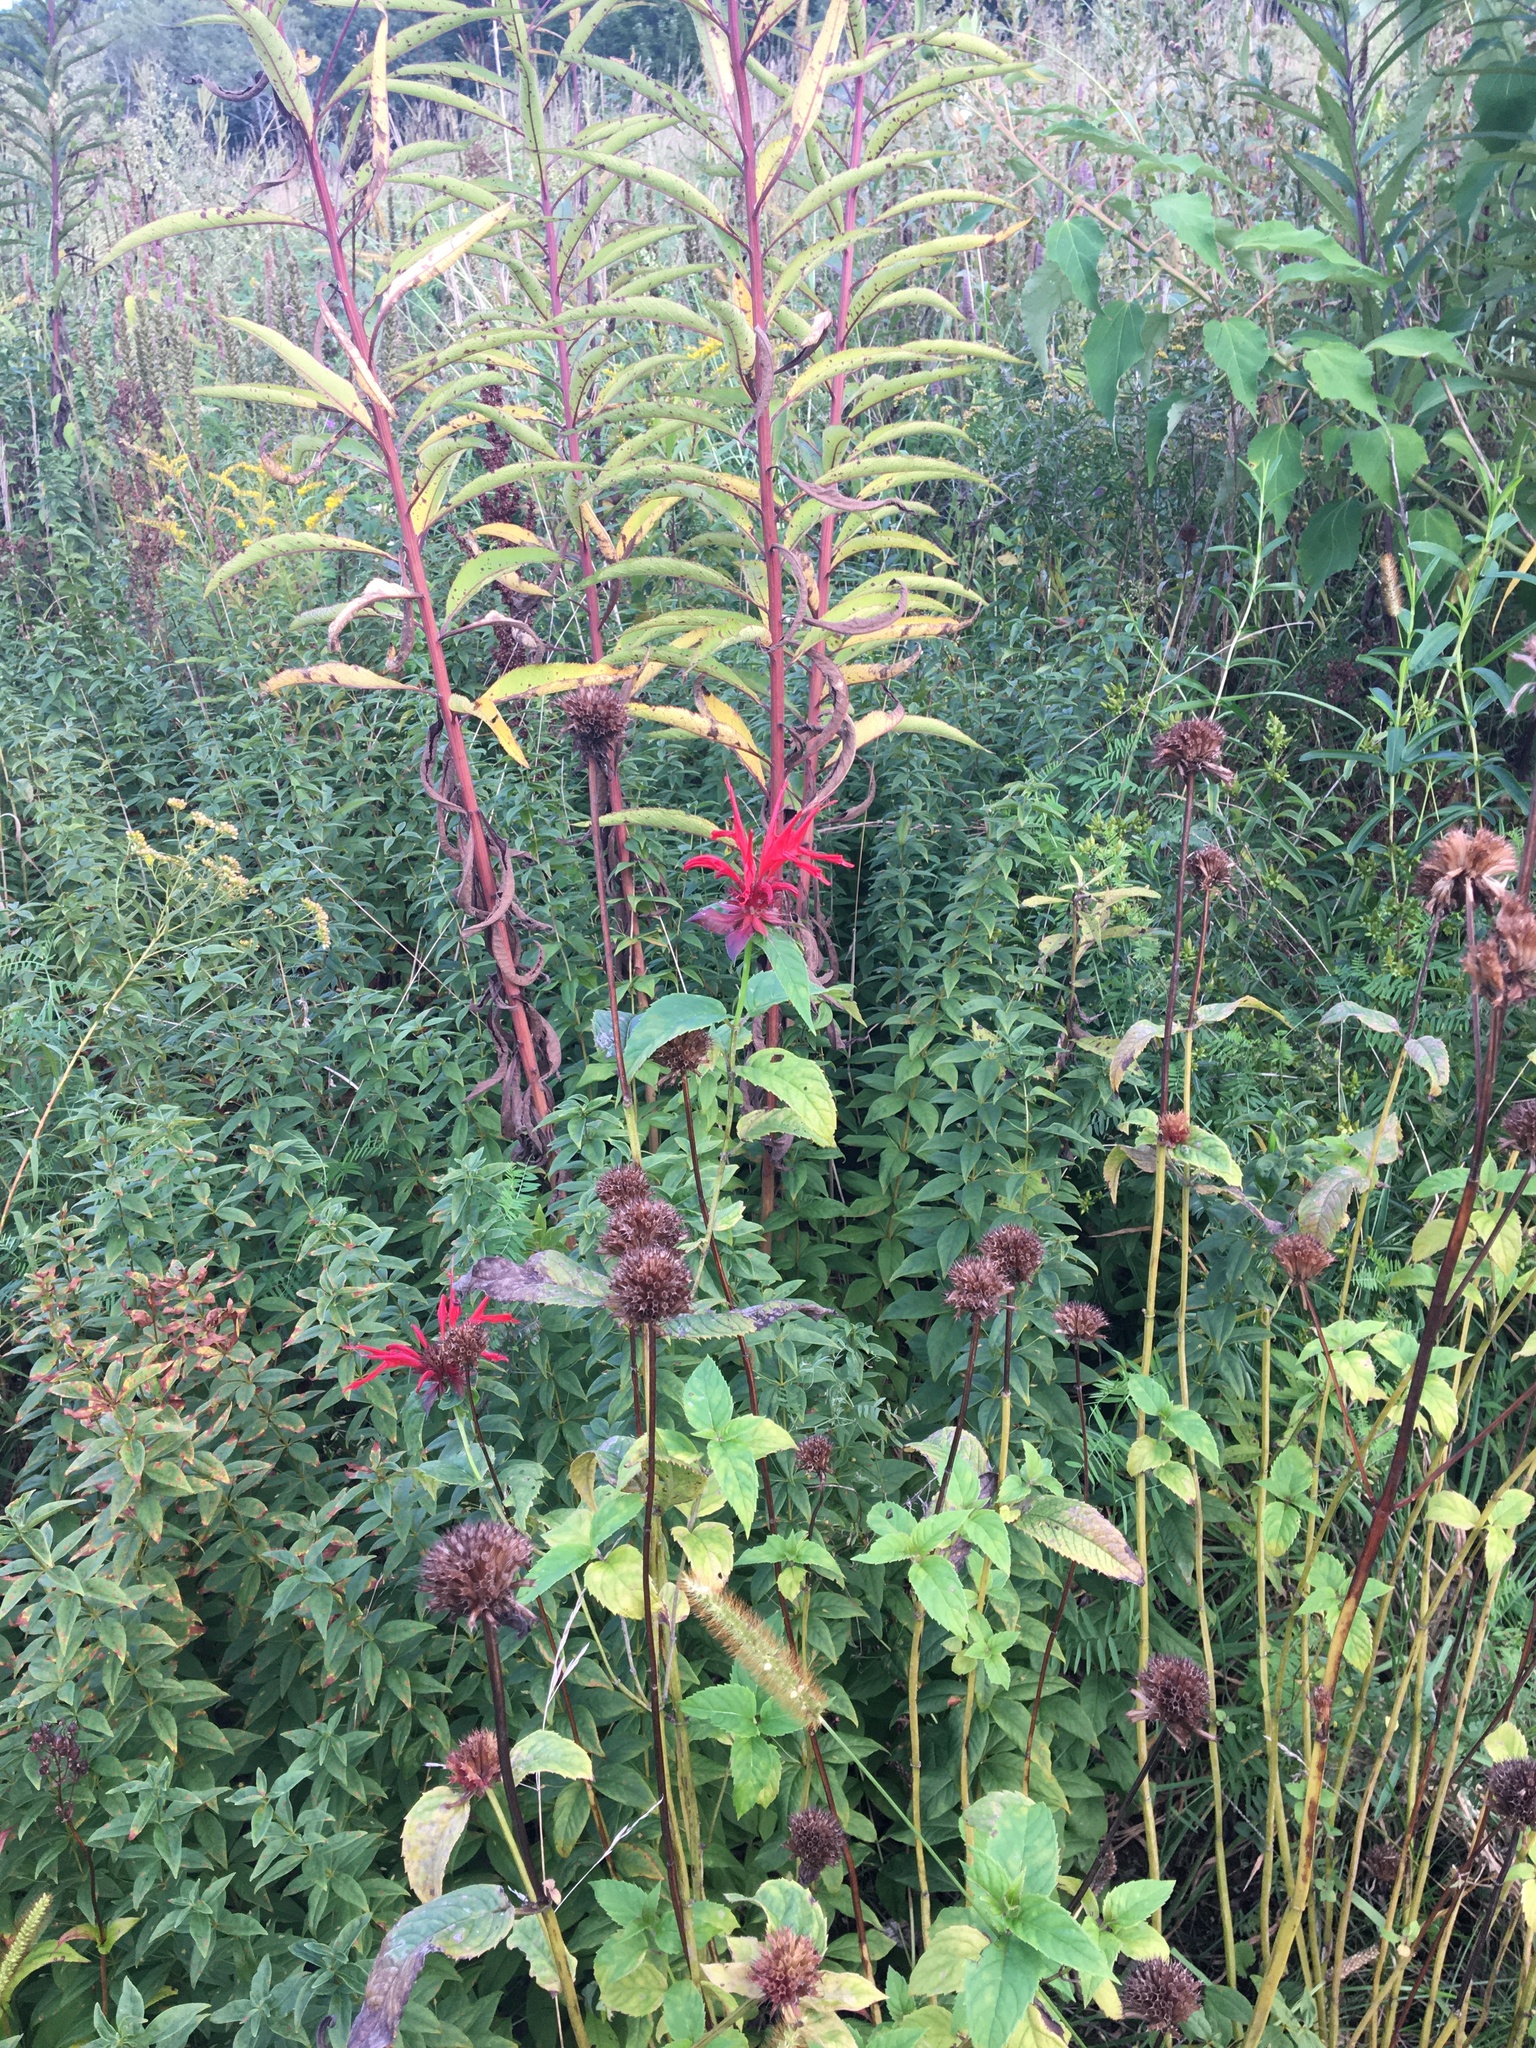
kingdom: Plantae
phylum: Tracheophyta
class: Magnoliopsida
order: Lamiales
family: Lamiaceae
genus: Monarda
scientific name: Monarda didyma
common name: Beebalm
